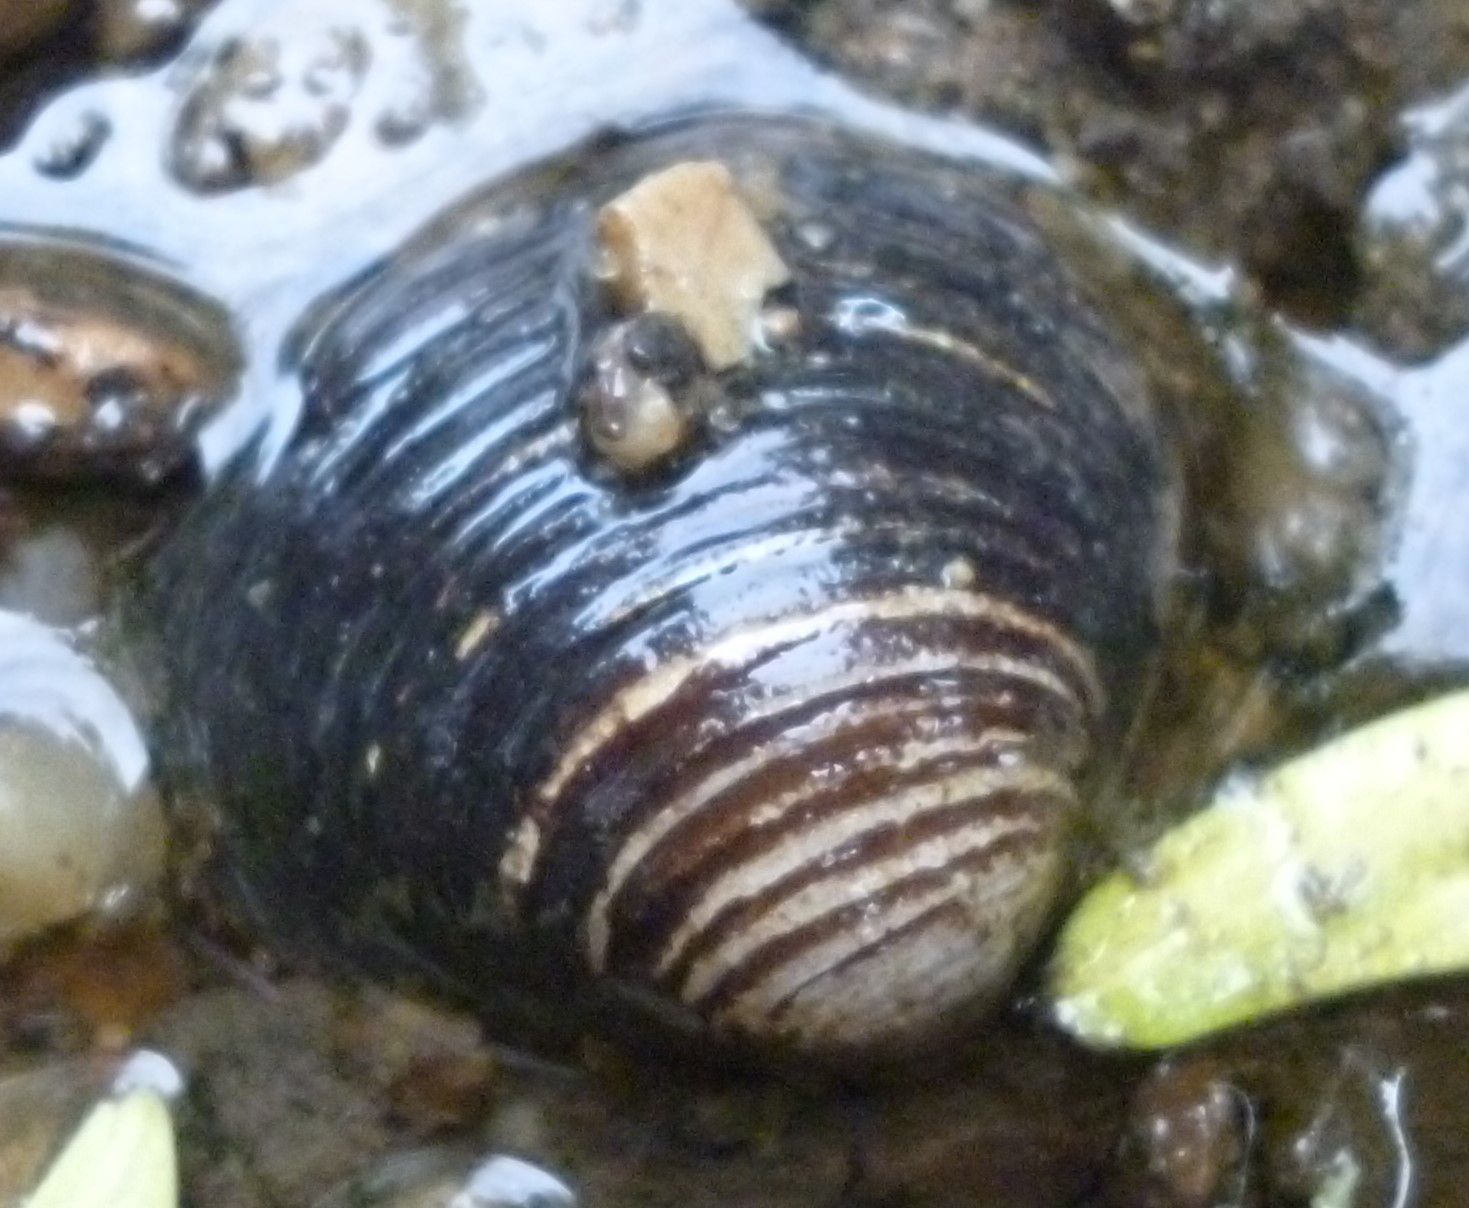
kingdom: Animalia
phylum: Mollusca
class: Bivalvia
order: Venerida
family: Cyrenidae
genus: Corbicula
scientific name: Corbicula fluminea
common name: Asian clam
